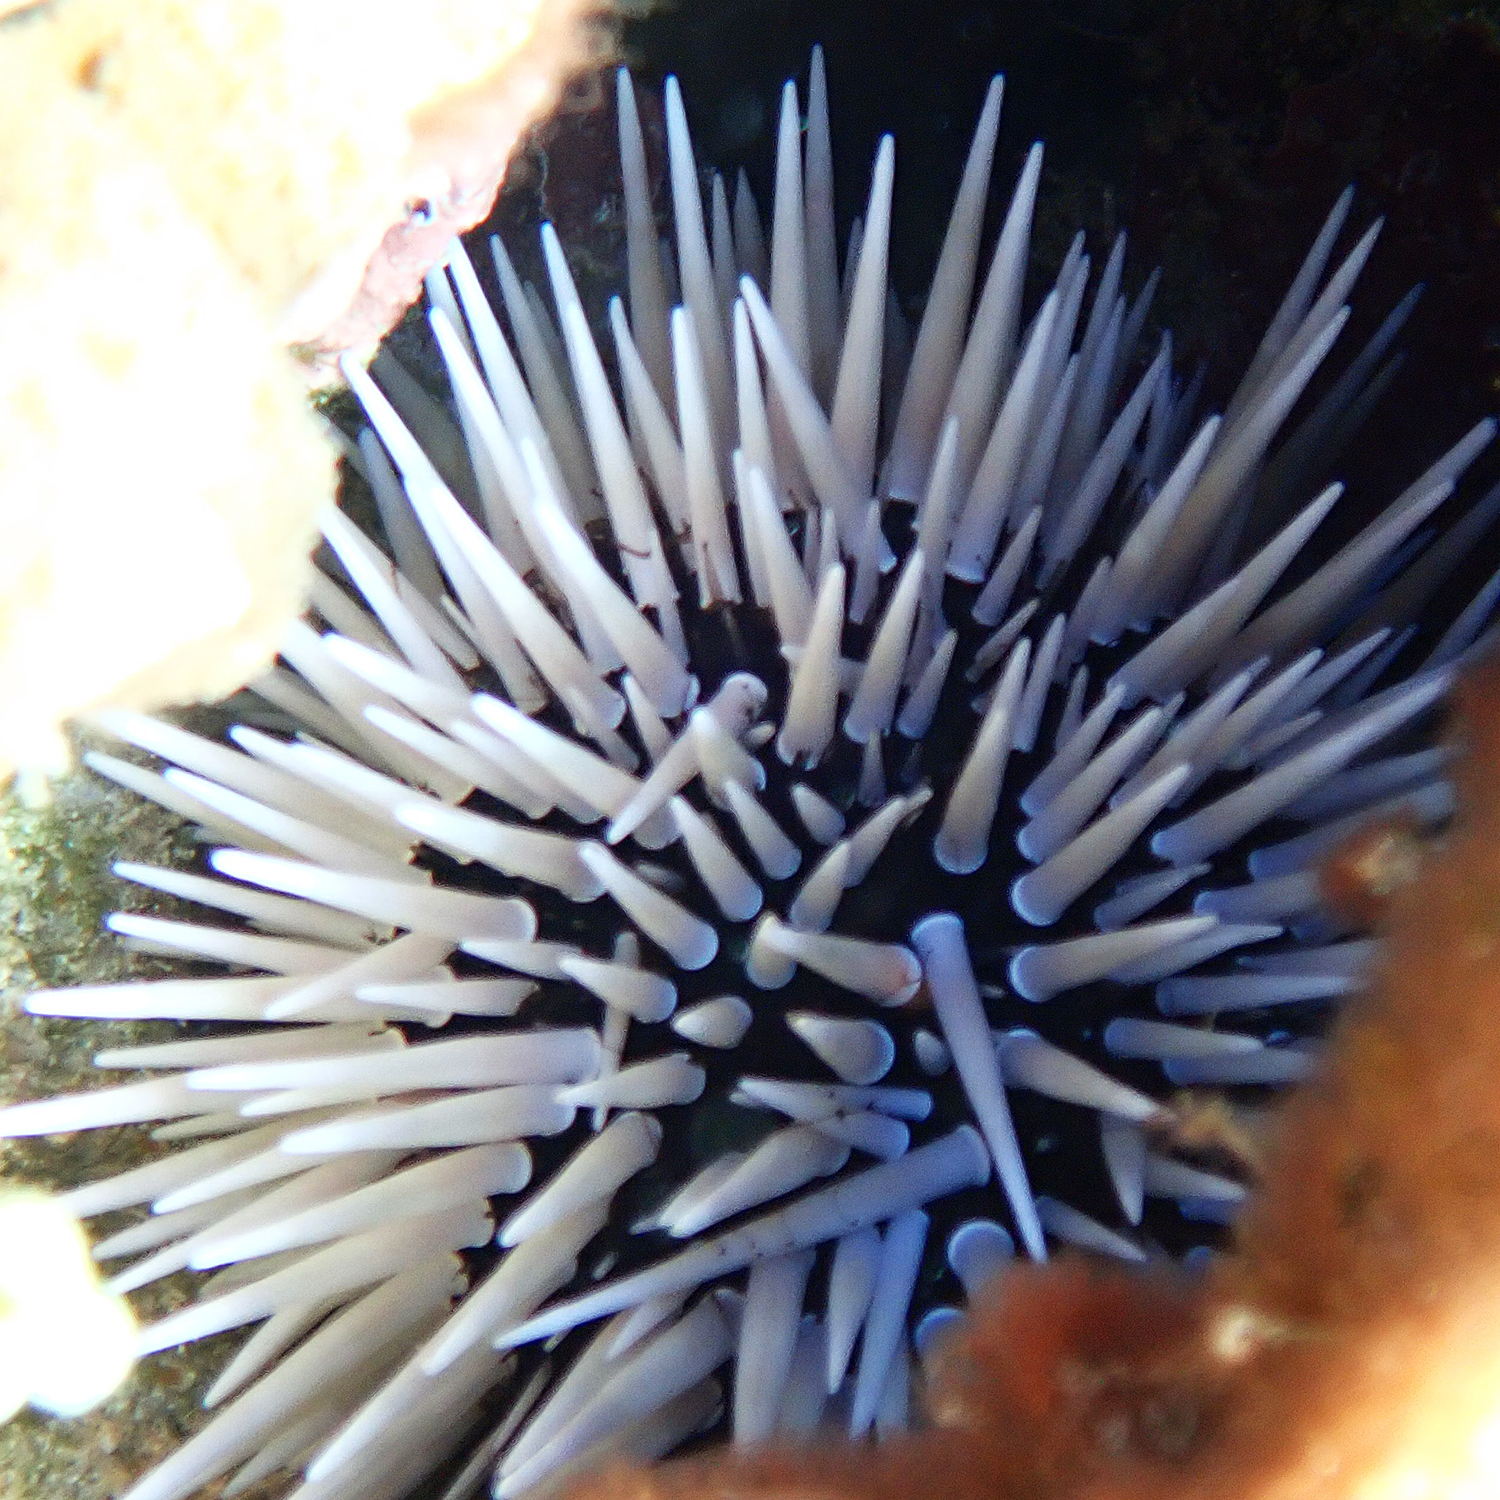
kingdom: Animalia
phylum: Echinodermata
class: Echinoidea
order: Camarodonta
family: Echinometridae
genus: Echinometra
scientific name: Echinometra mathaei
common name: Rock-boring urchin
